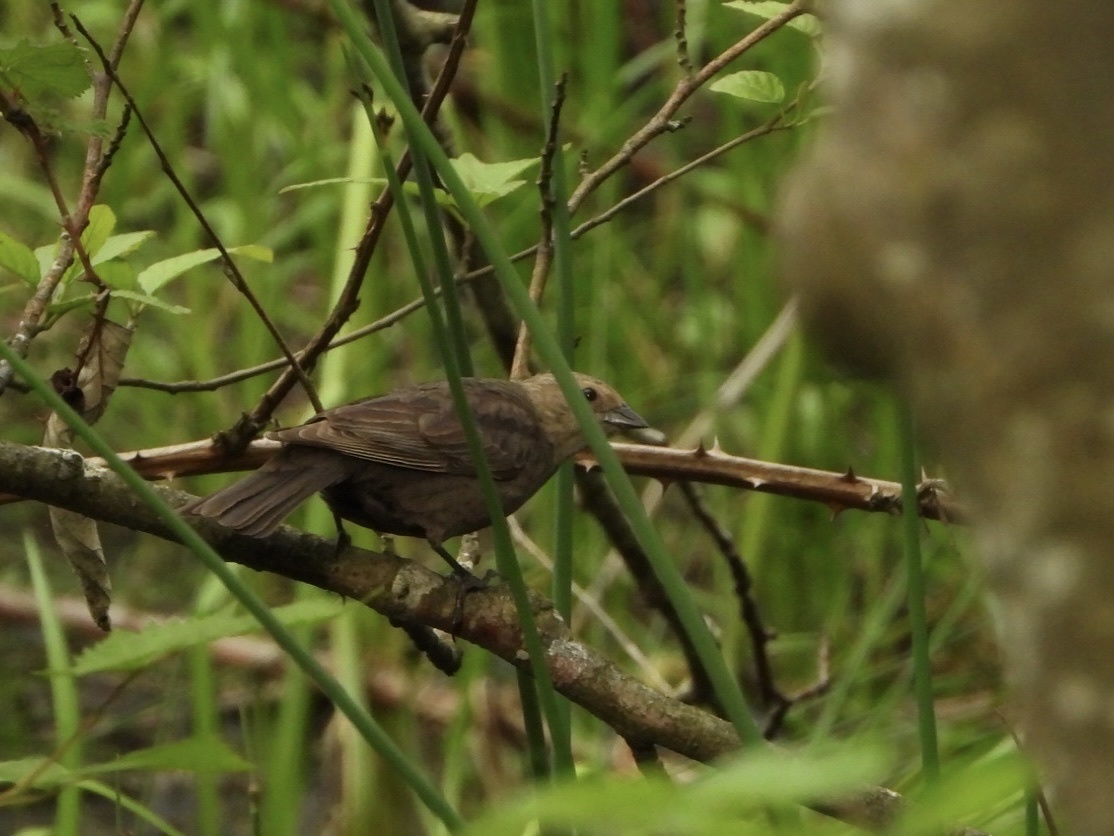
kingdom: Animalia
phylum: Chordata
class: Aves
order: Passeriformes
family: Icteridae
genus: Molothrus
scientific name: Molothrus ater
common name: Brown-headed cowbird
